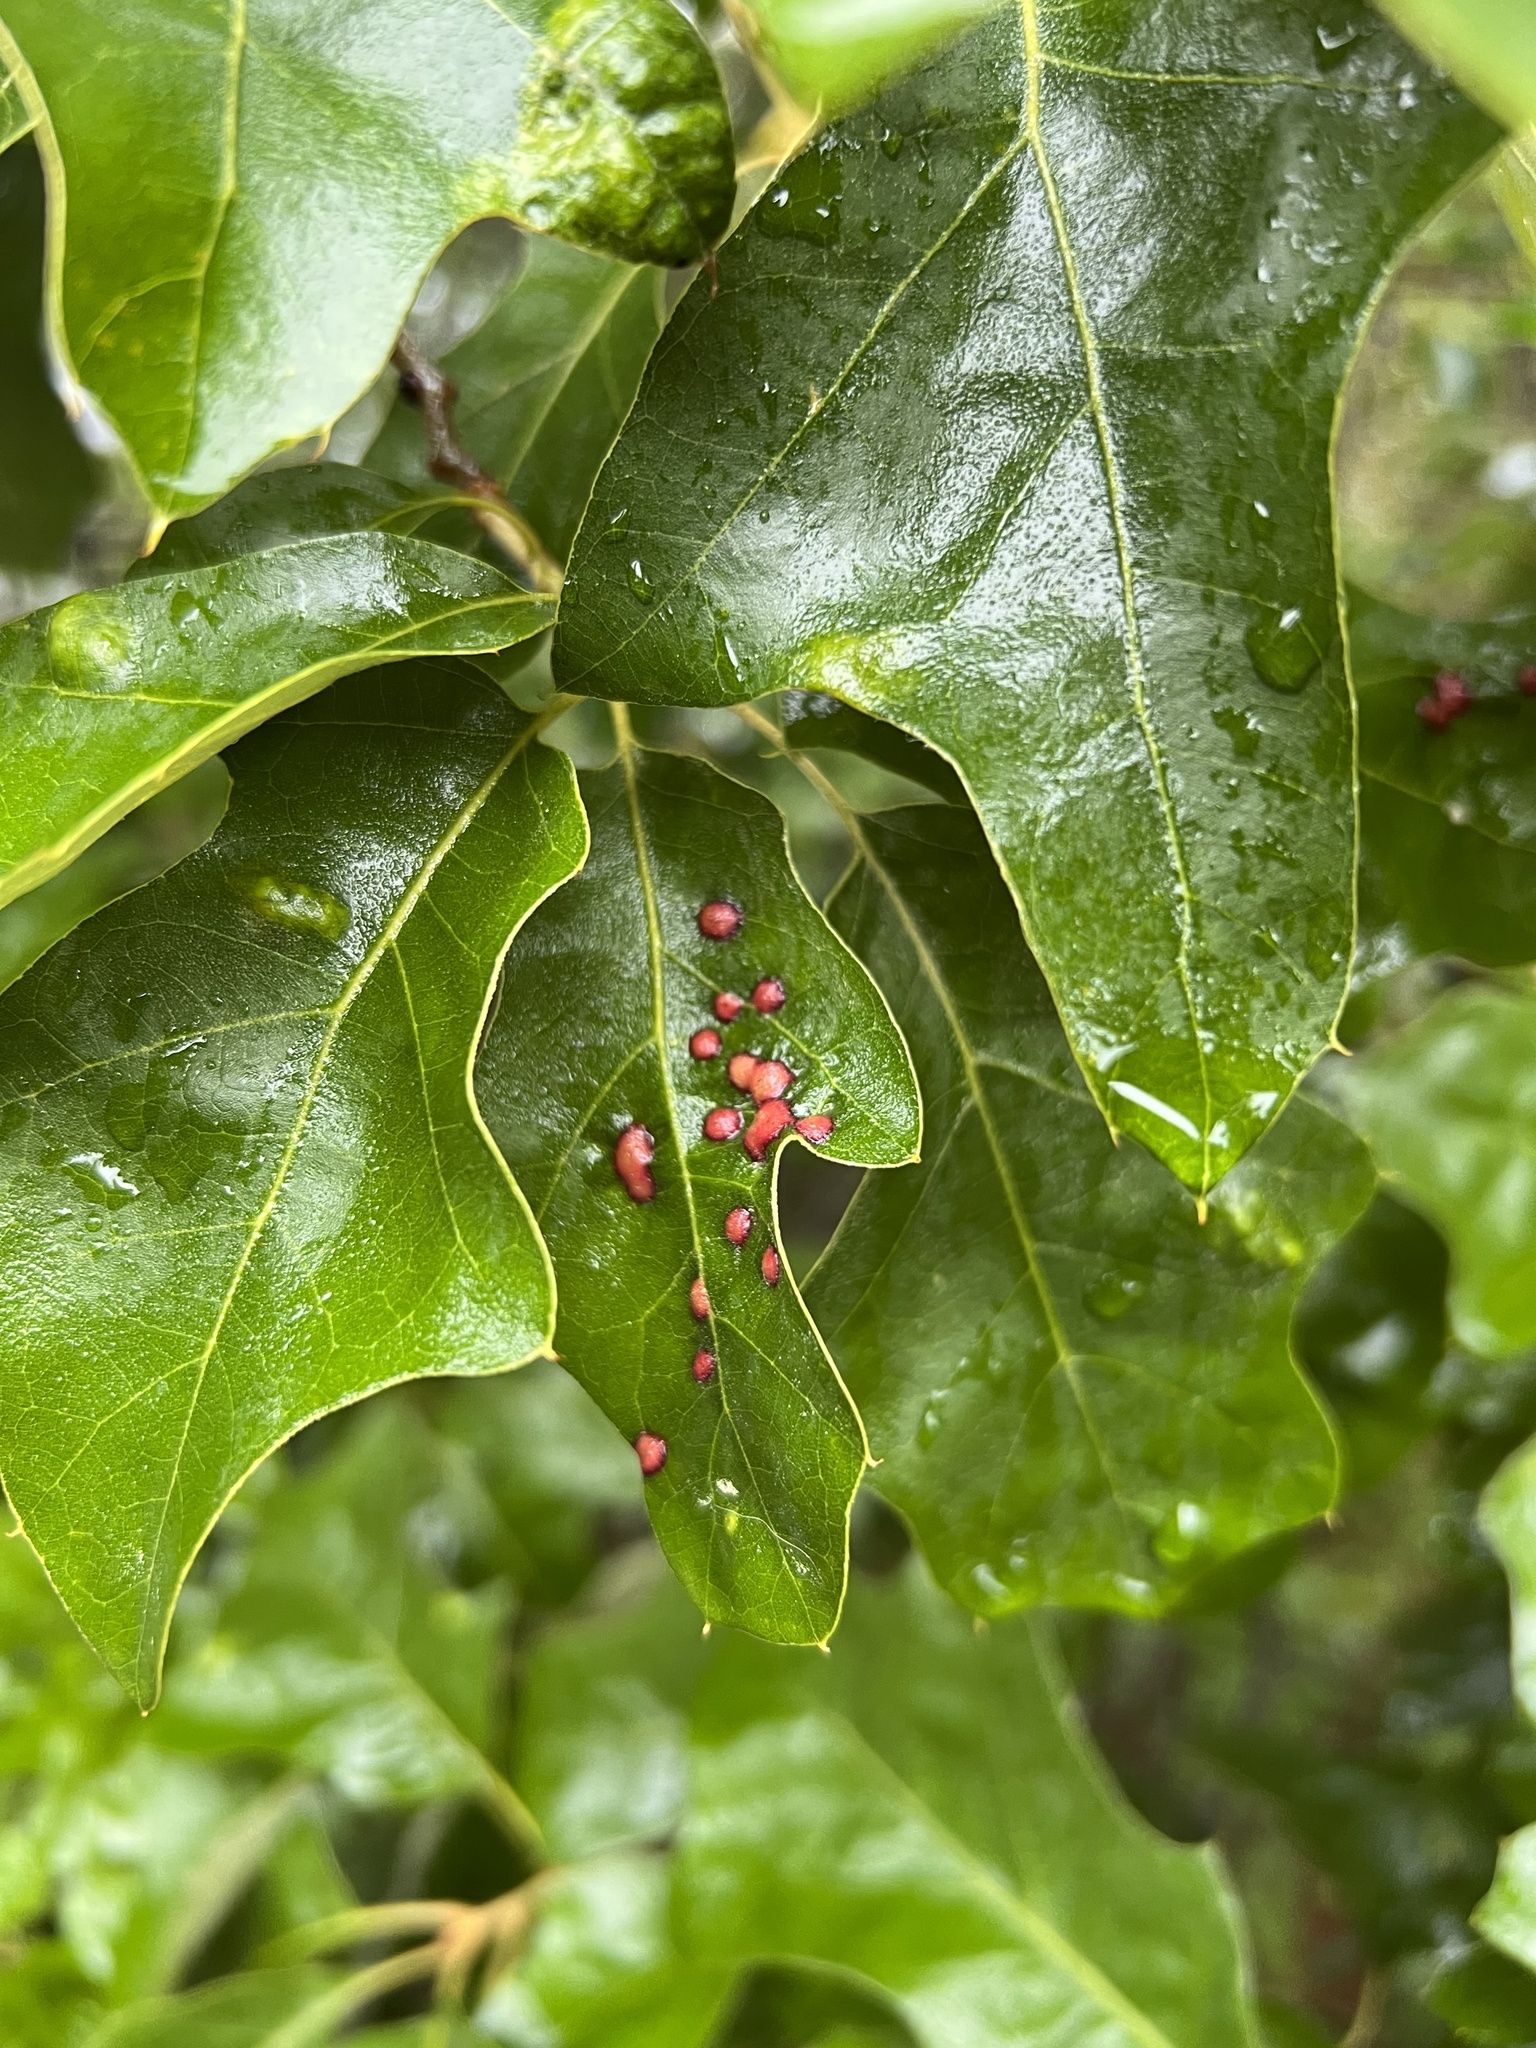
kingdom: Animalia
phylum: Arthropoda
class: Insecta
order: Diptera
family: Cecidomyiidae
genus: Polystepha
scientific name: Polystepha pilulae
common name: Oak leaf gall midge
